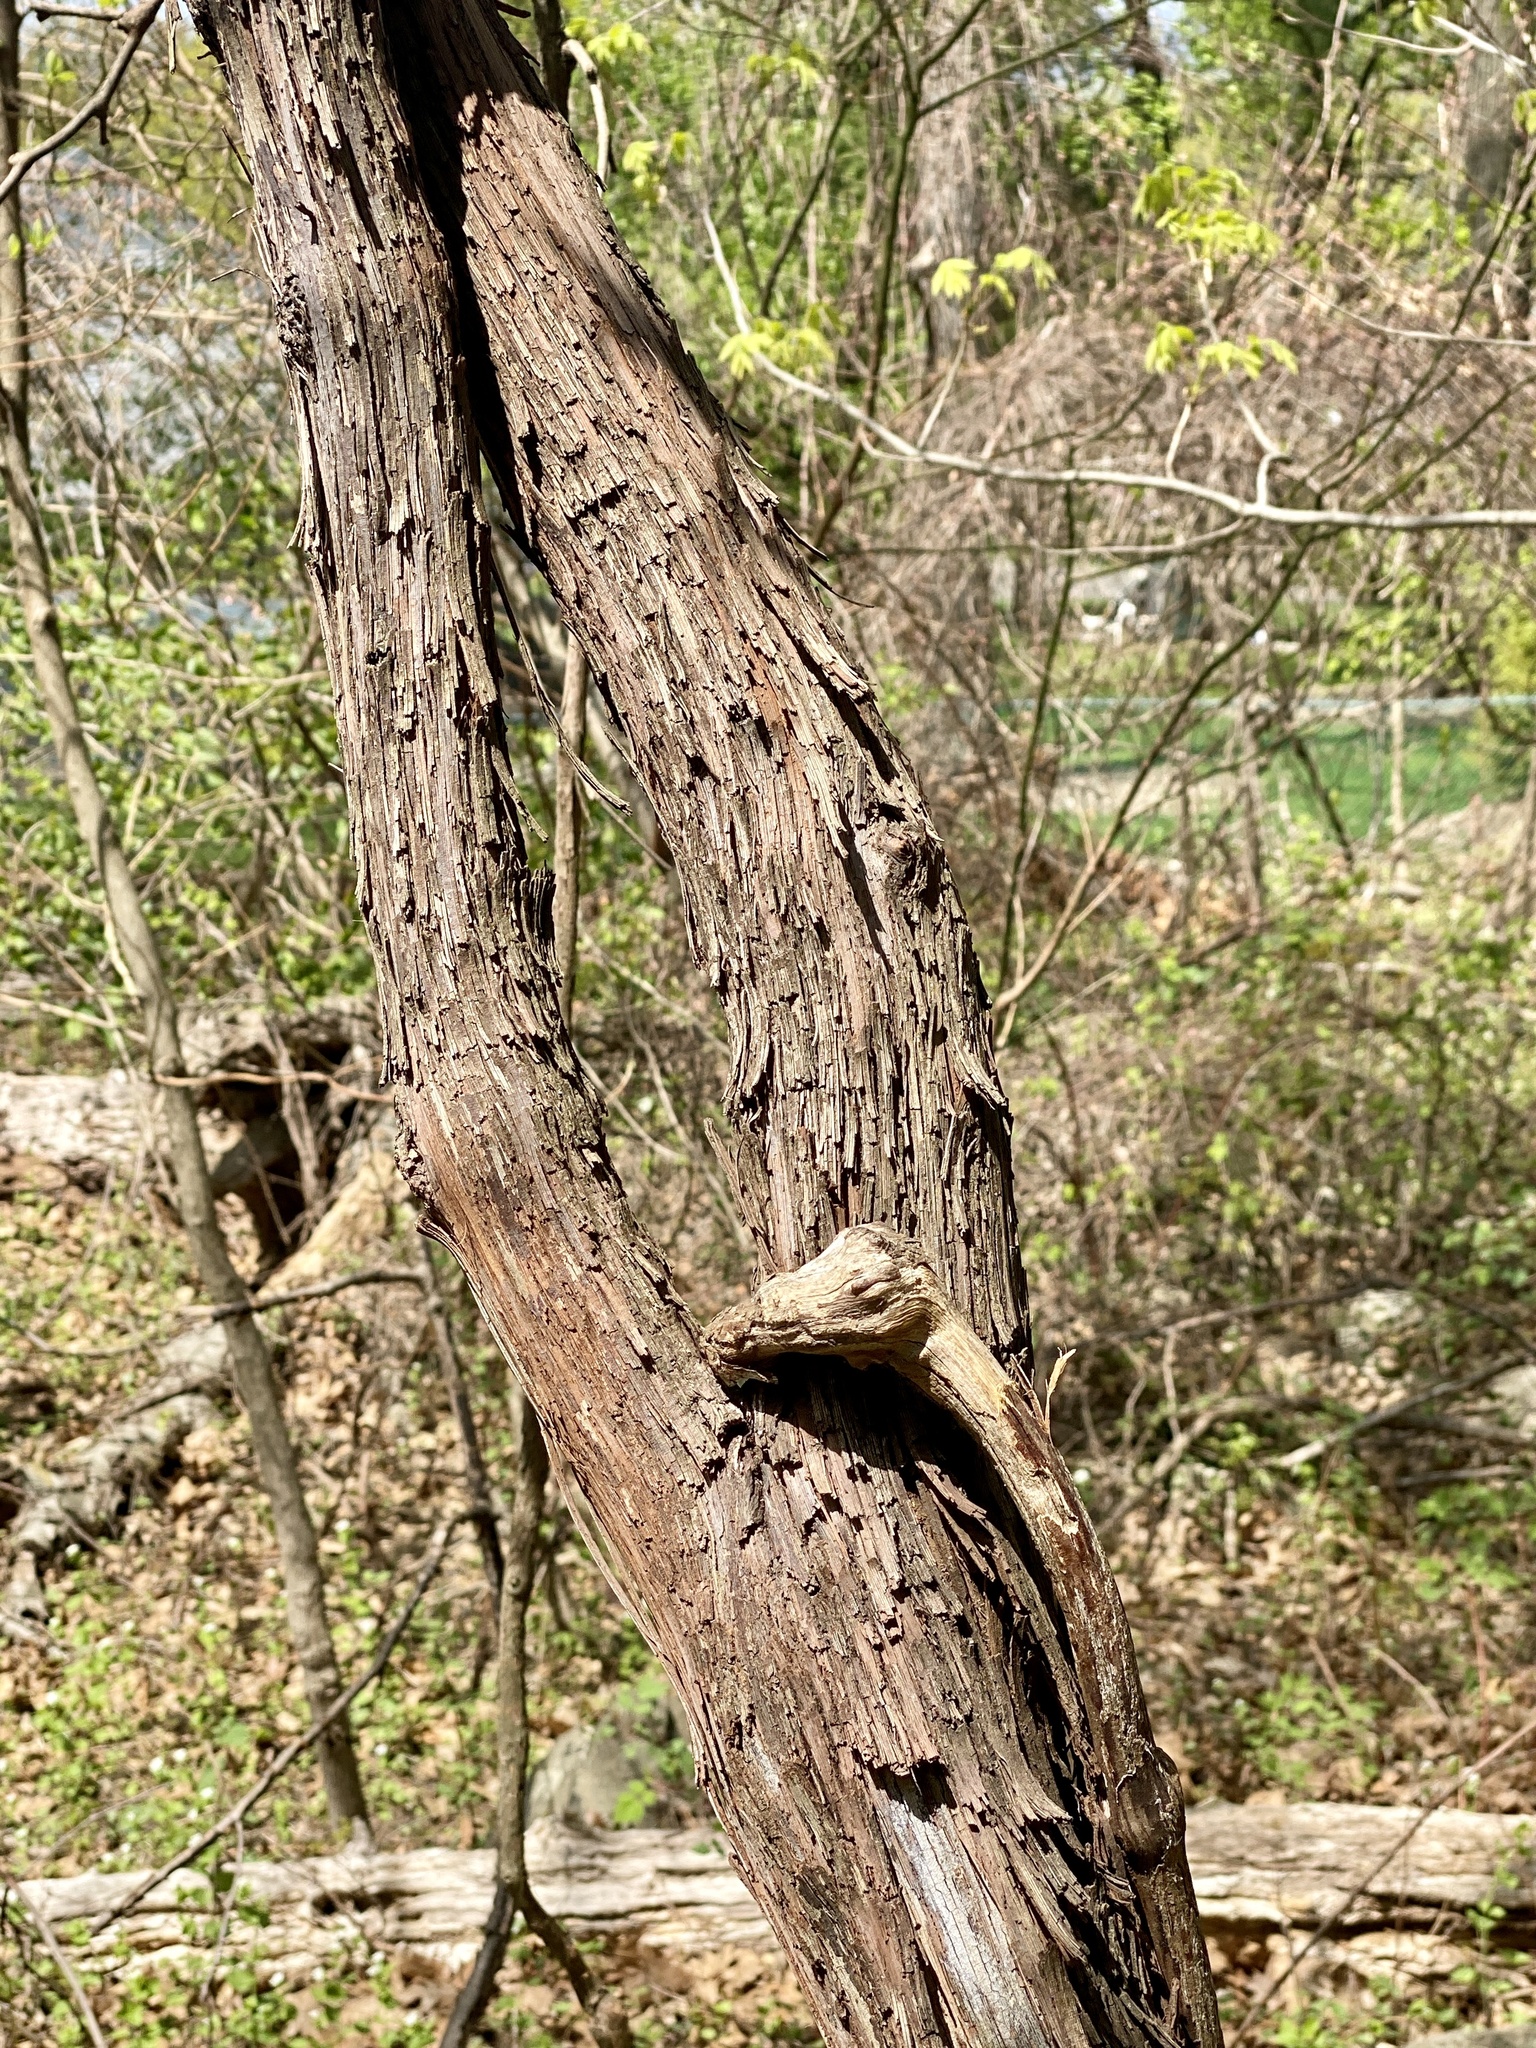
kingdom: Plantae
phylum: Tracheophyta
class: Magnoliopsida
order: Vitales
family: Vitaceae
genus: Vitis
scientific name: Vitis
